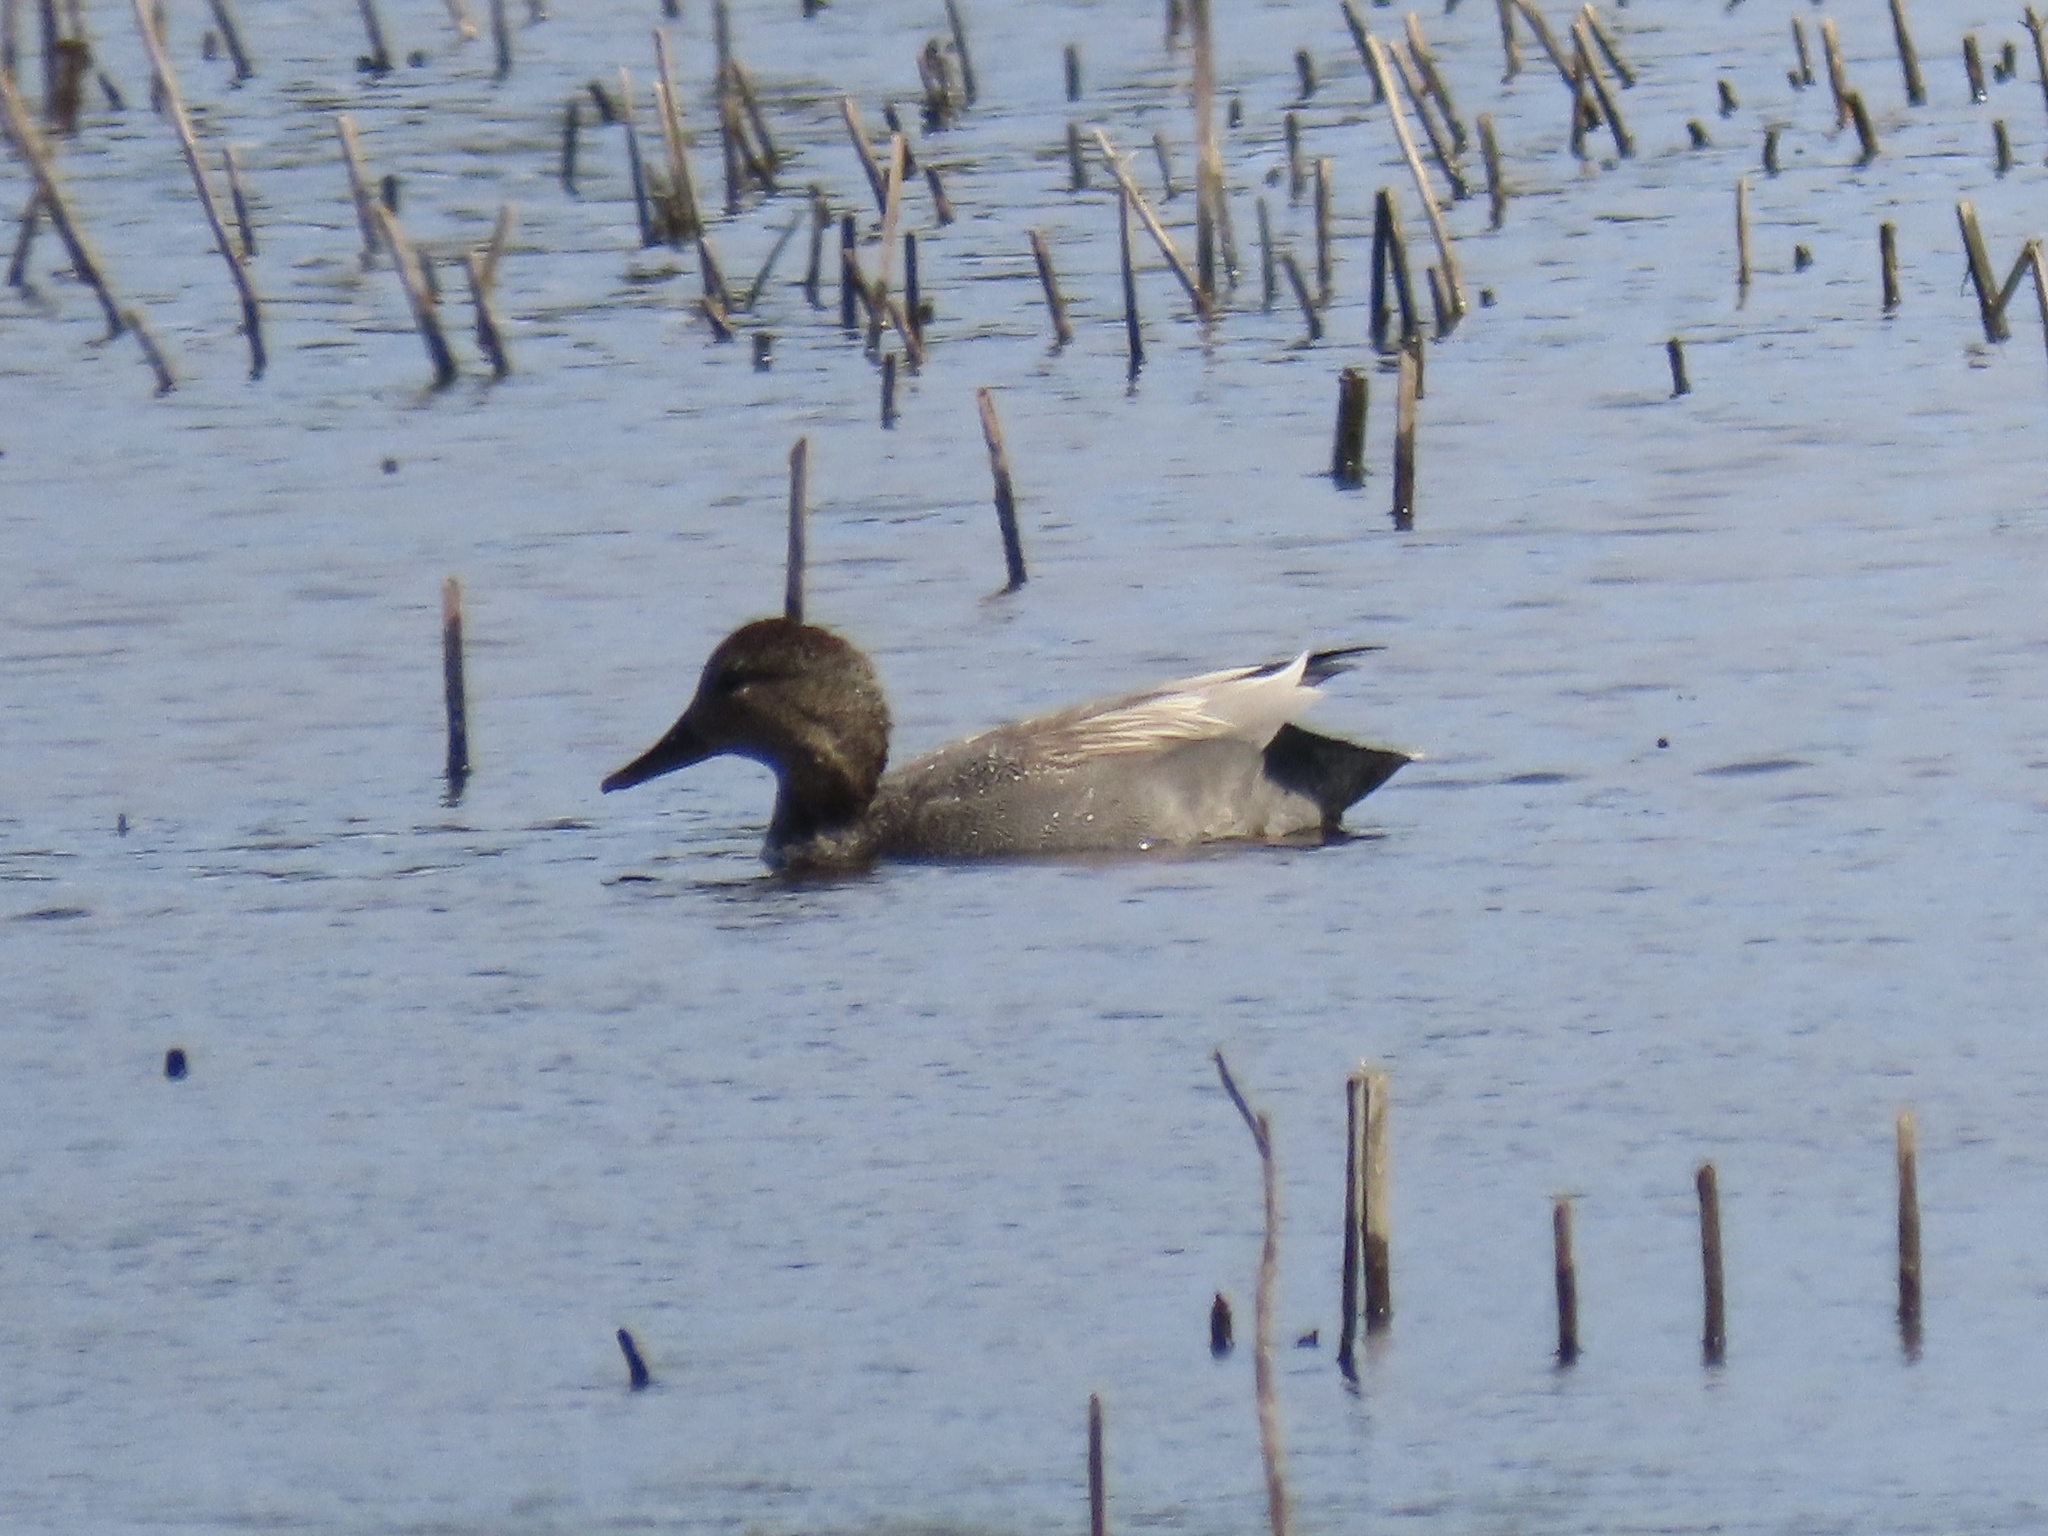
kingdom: Animalia
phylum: Chordata
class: Aves
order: Anseriformes
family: Anatidae
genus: Mareca
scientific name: Mareca strepera
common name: Gadwall
